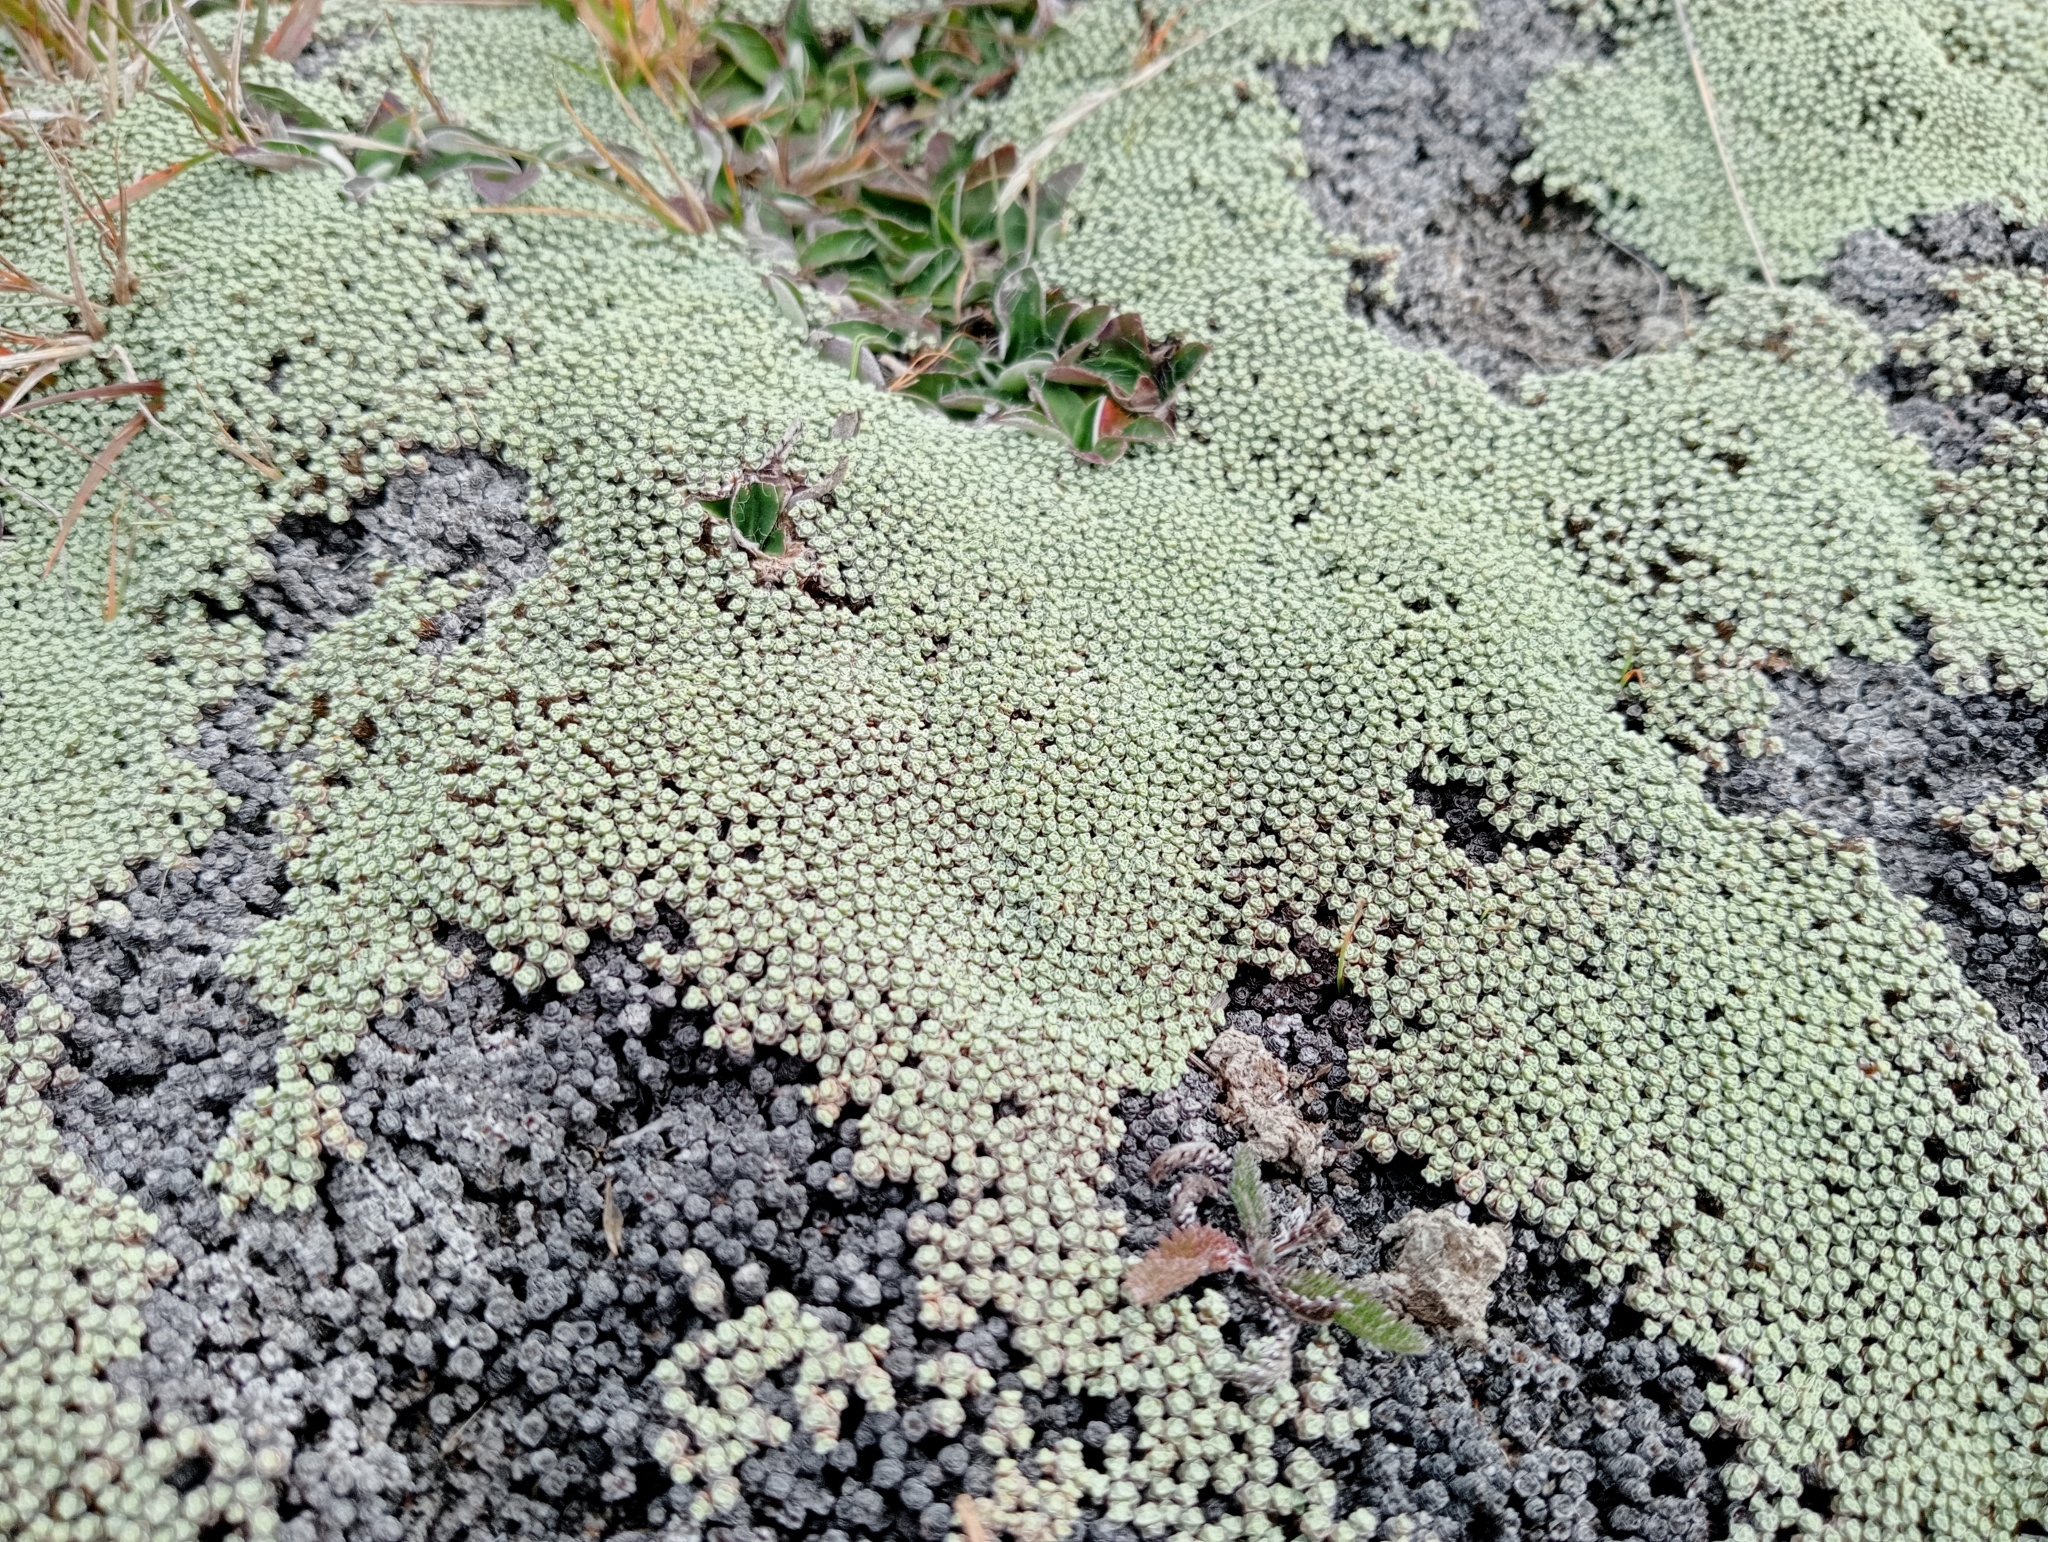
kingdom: Plantae
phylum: Tracheophyta
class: Magnoliopsida
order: Asterales
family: Asteraceae
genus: Raoulia
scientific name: Raoulia australis
